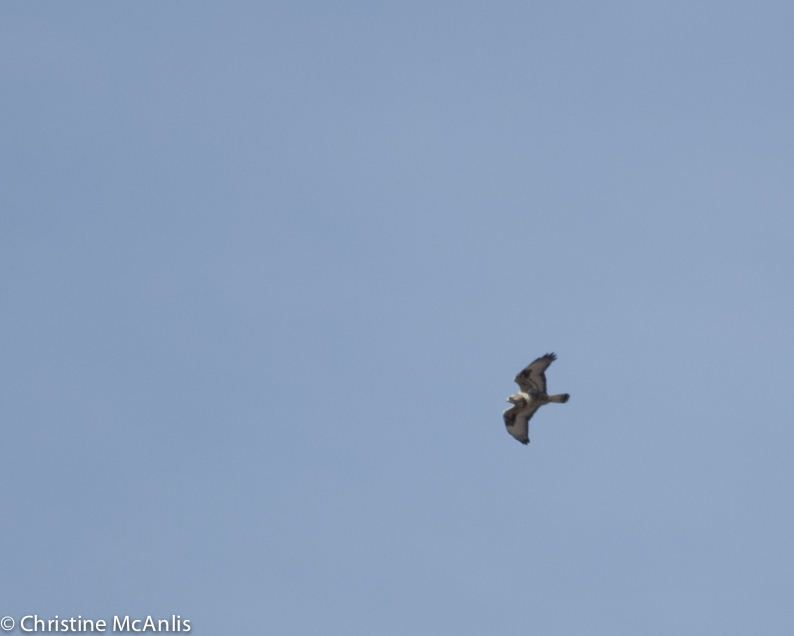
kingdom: Animalia
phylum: Chordata
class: Aves
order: Accipitriformes
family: Accipitridae
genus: Buteo
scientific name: Buteo lagopus
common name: Rough-legged buzzard
